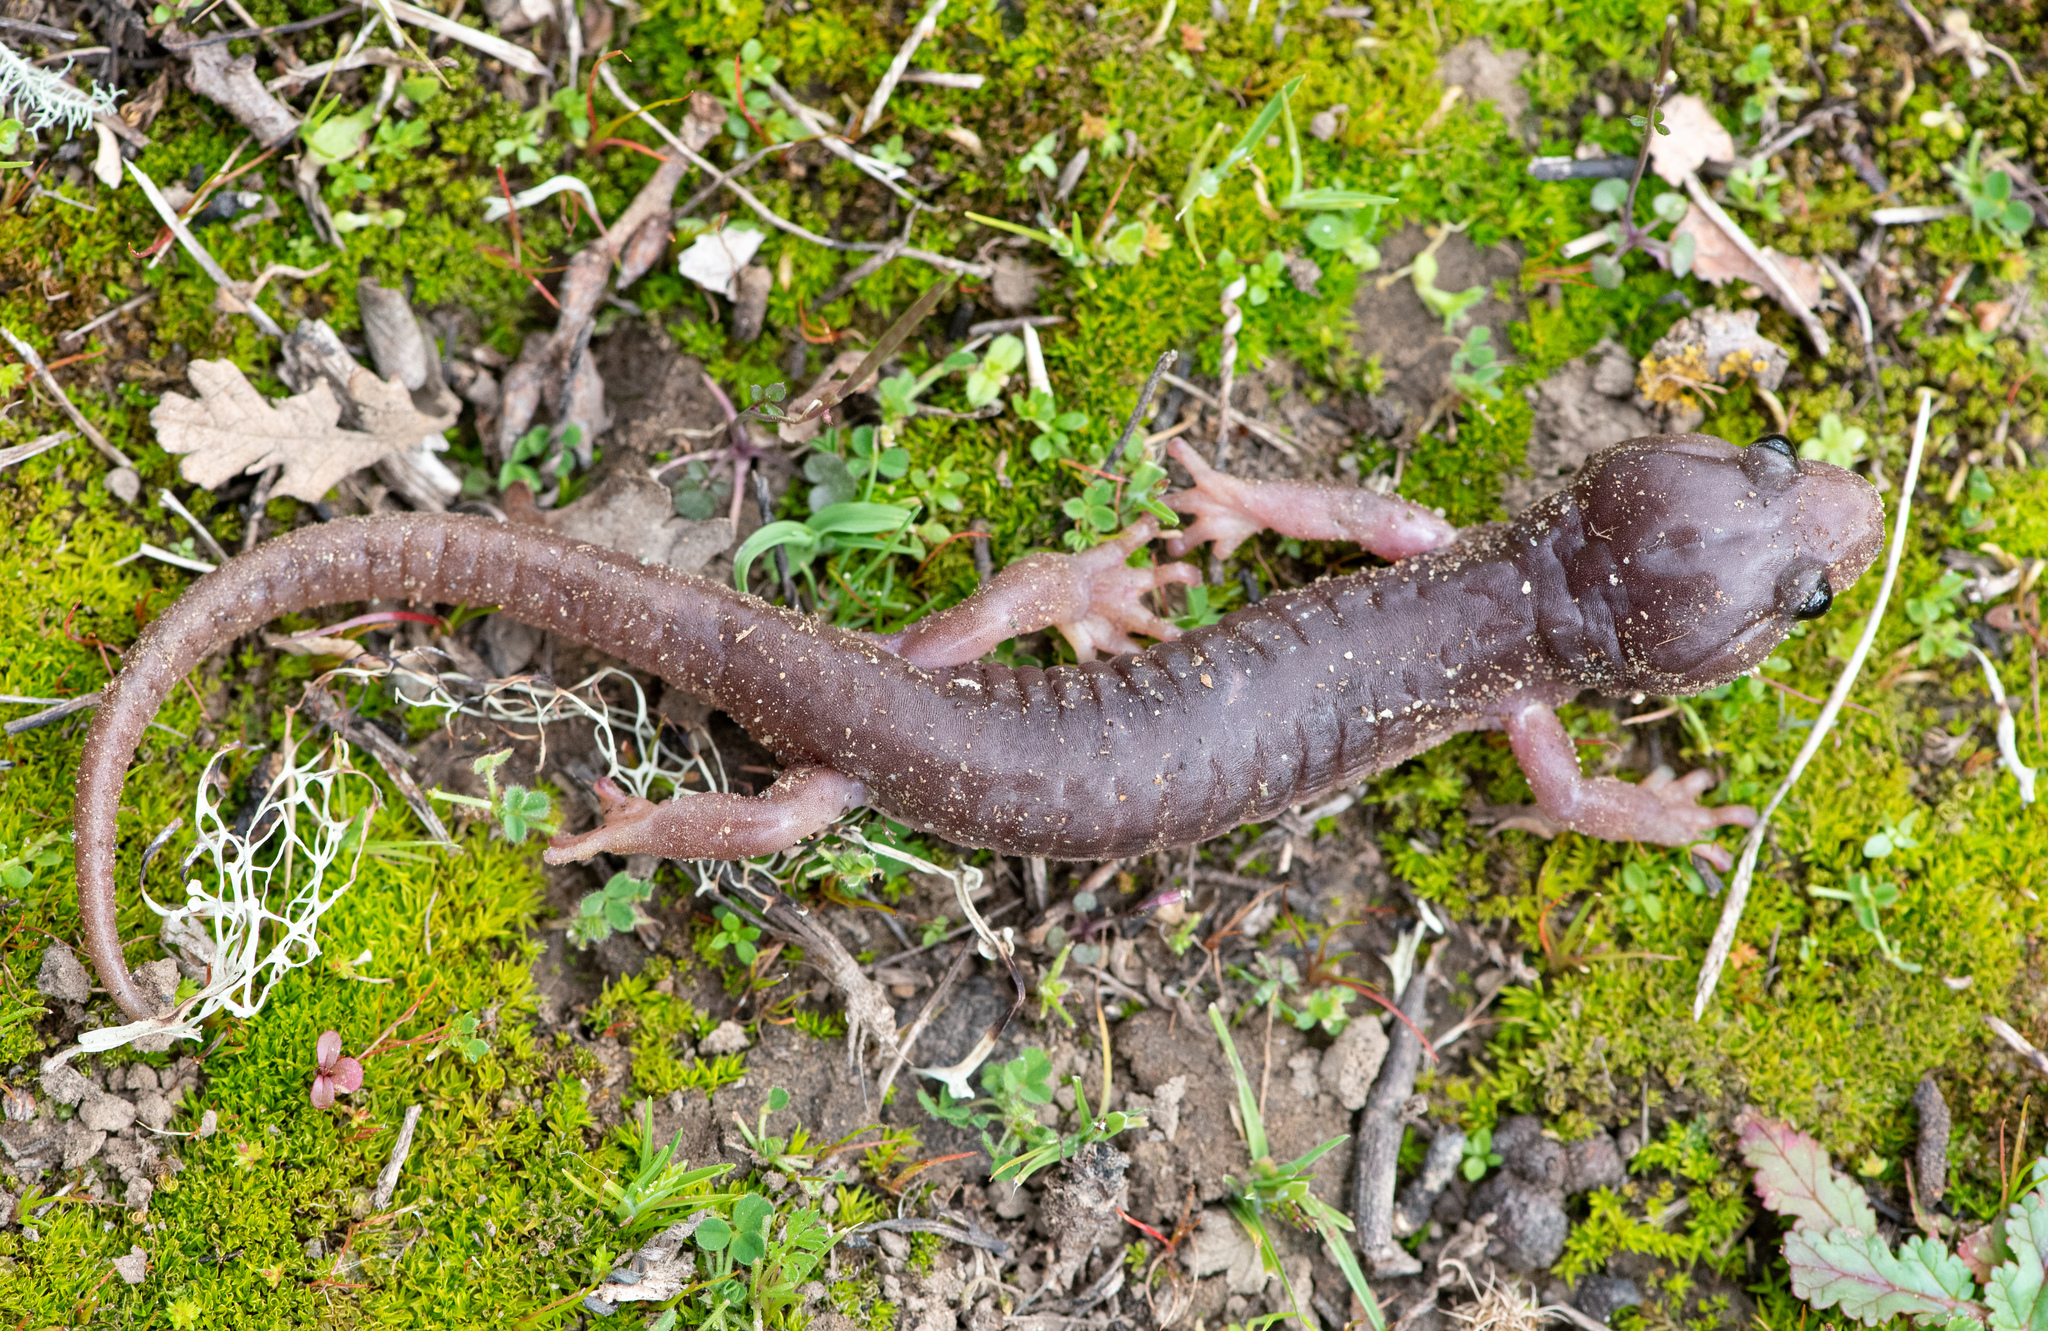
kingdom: Animalia
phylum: Chordata
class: Amphibia
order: Caudata
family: Plethodontidae
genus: Aneides
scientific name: Aneides lugubris
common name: Arboreal salamander
